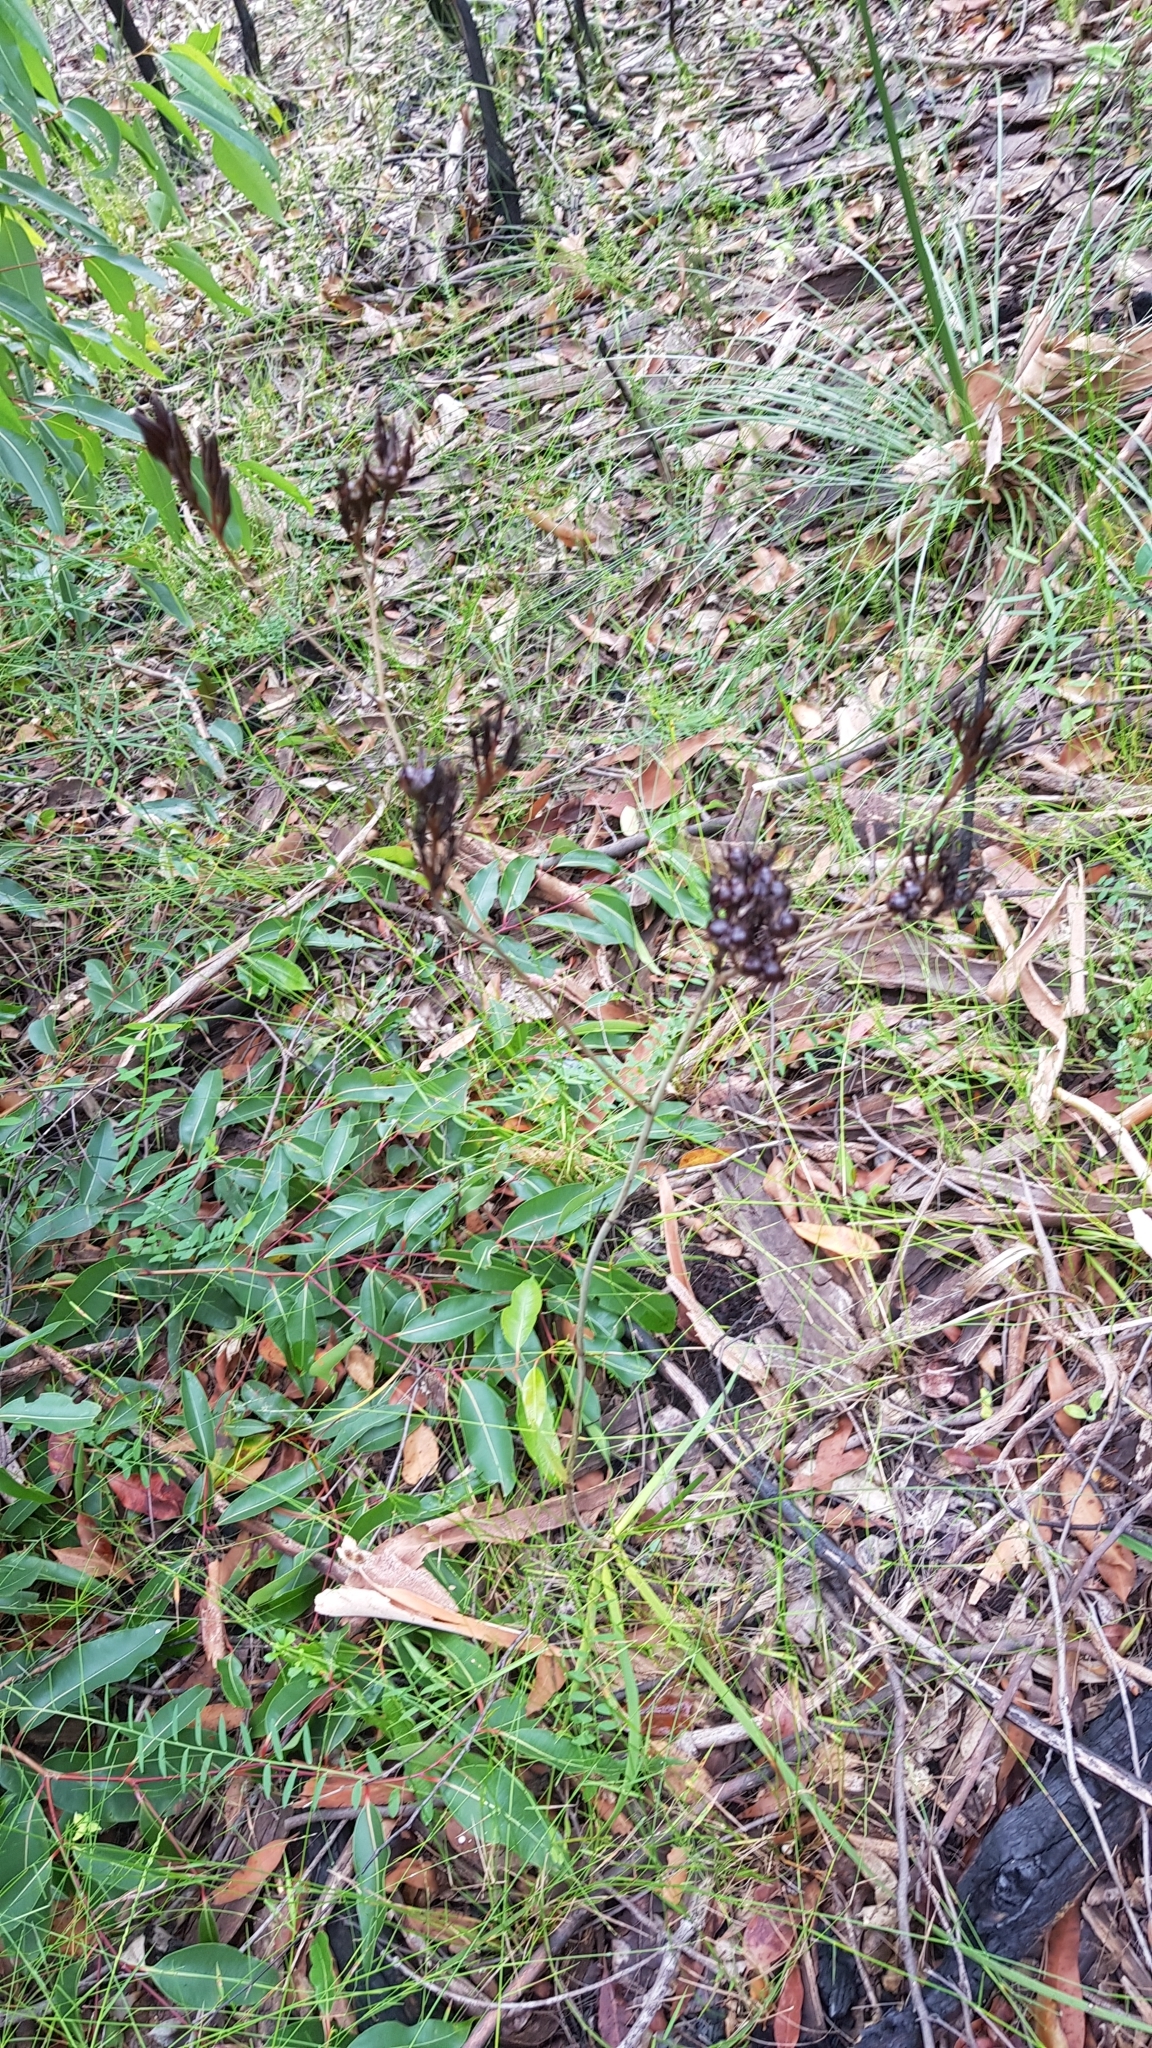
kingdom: Plantae
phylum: Tracheophyta
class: Liliopsida
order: Commelinales
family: Haemodoraceae
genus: Haemodorum
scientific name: Haemodorum planifolium
